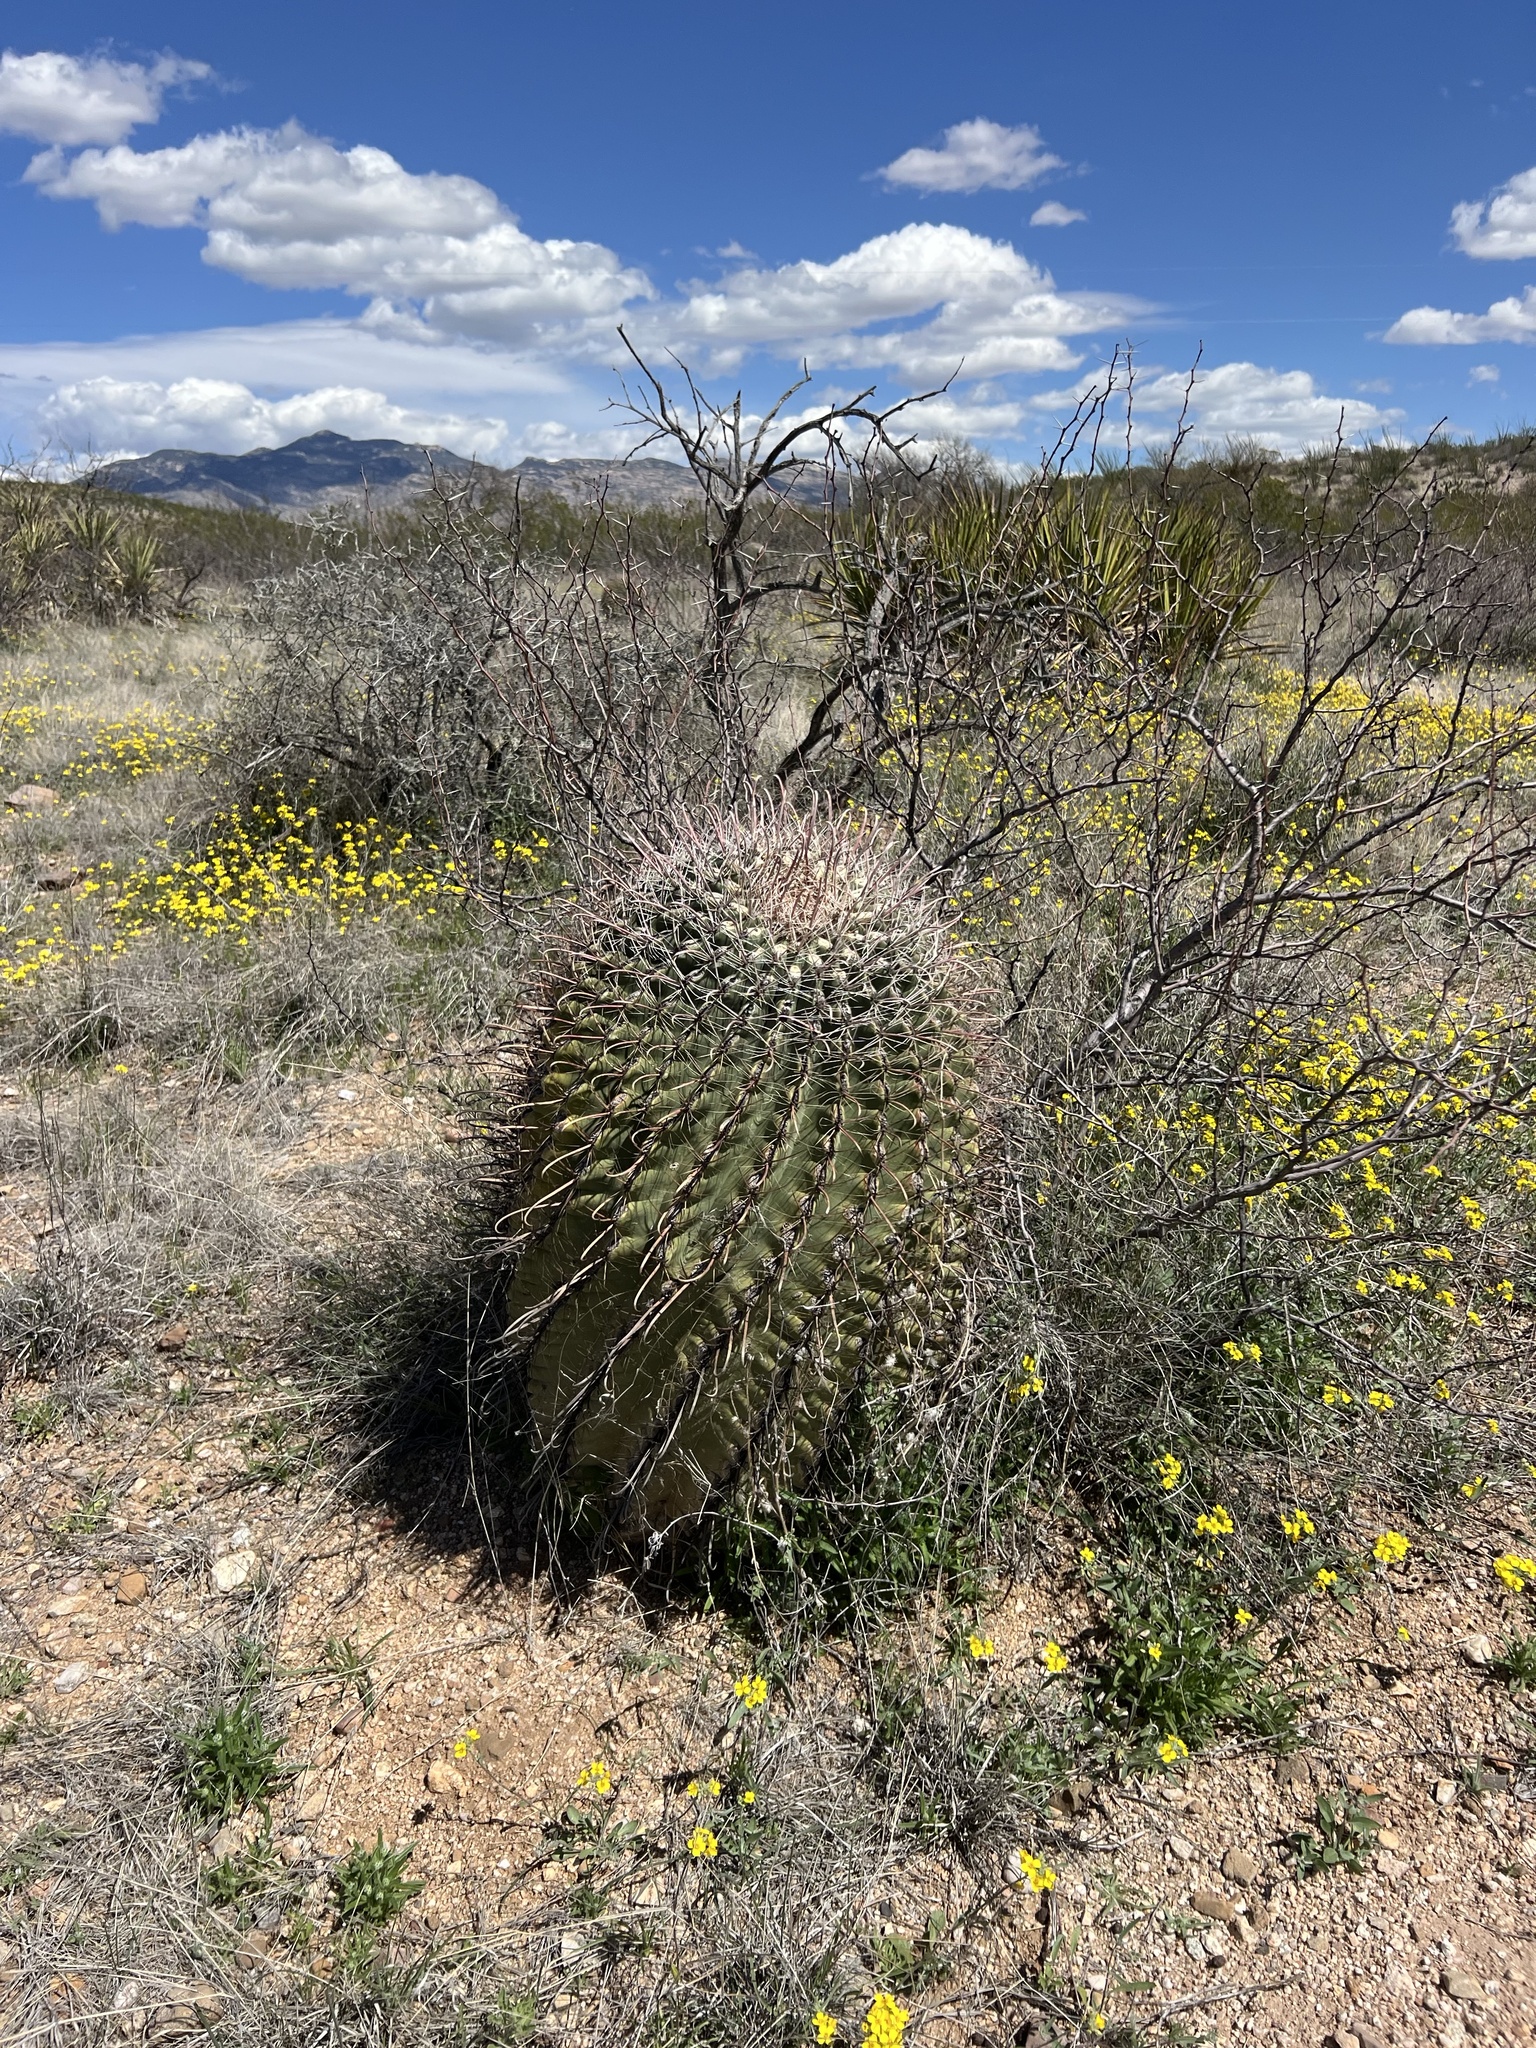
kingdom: Plantae
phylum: Tracheophyta
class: Magnoliopsida
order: Caryophyllales
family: Cactaceae
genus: Ferocactus
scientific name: Ferocactus wislizeni
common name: Candy barrel cactus
